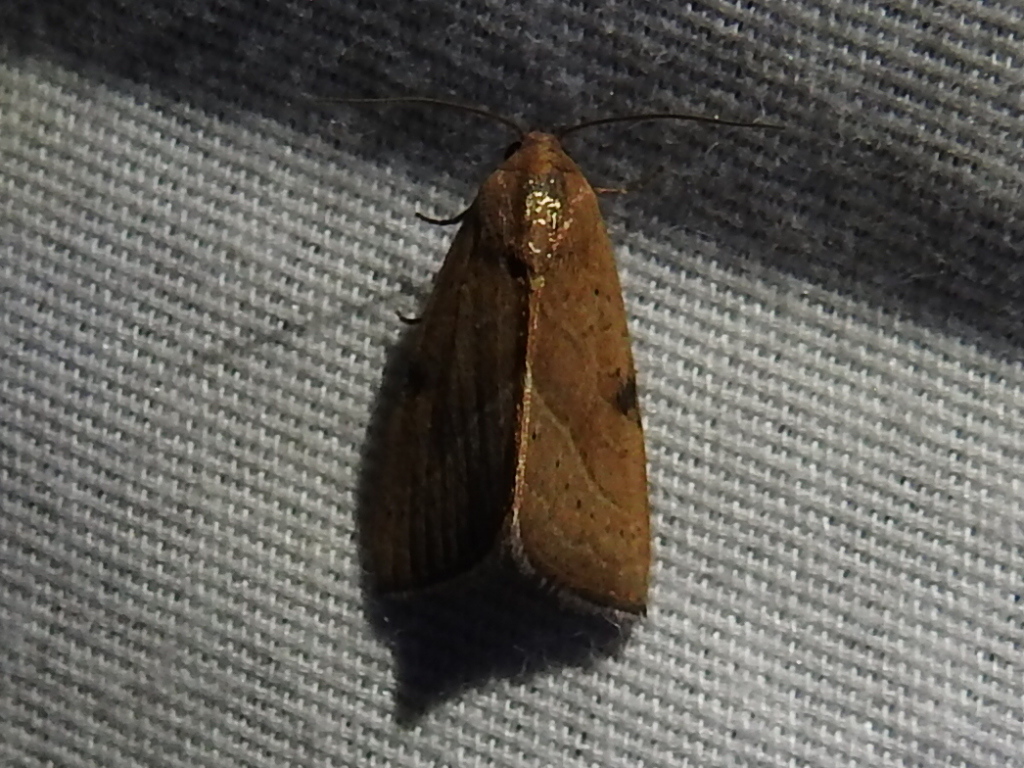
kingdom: Animalia
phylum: Arthropoda
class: Insecta
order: Lepidoptera
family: Noctuidae
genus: Galgula
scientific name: Galgula partita
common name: Wedgeling
